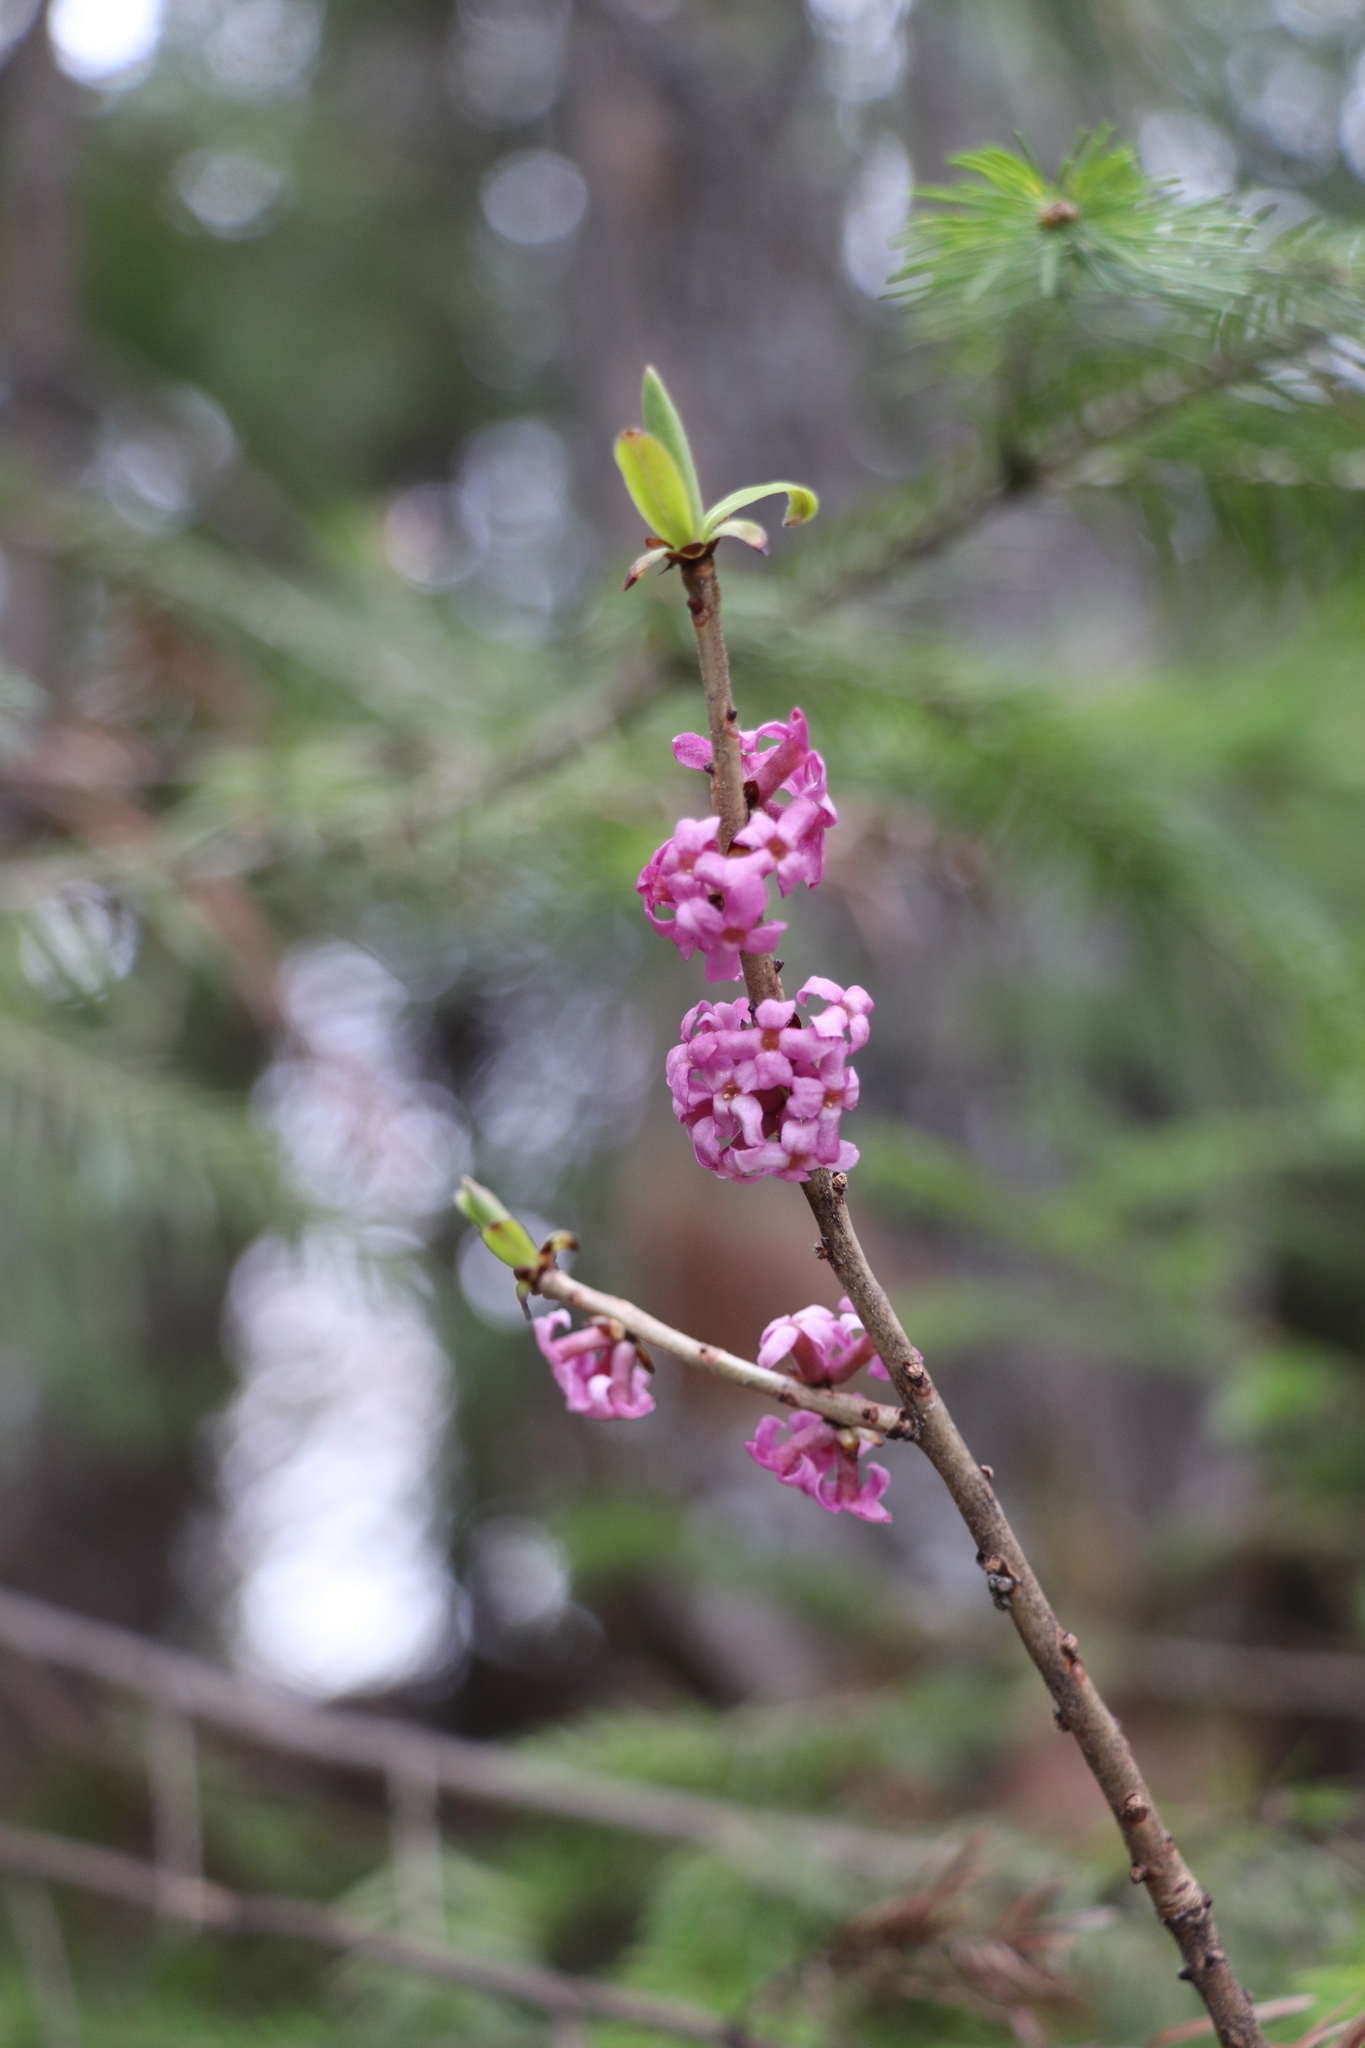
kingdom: Plantae
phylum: Tracheophyta
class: Magnoliopsida
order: Malvales
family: Thymelaeaceae
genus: Daphne
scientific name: Daphne mezereum
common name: Mezereon
